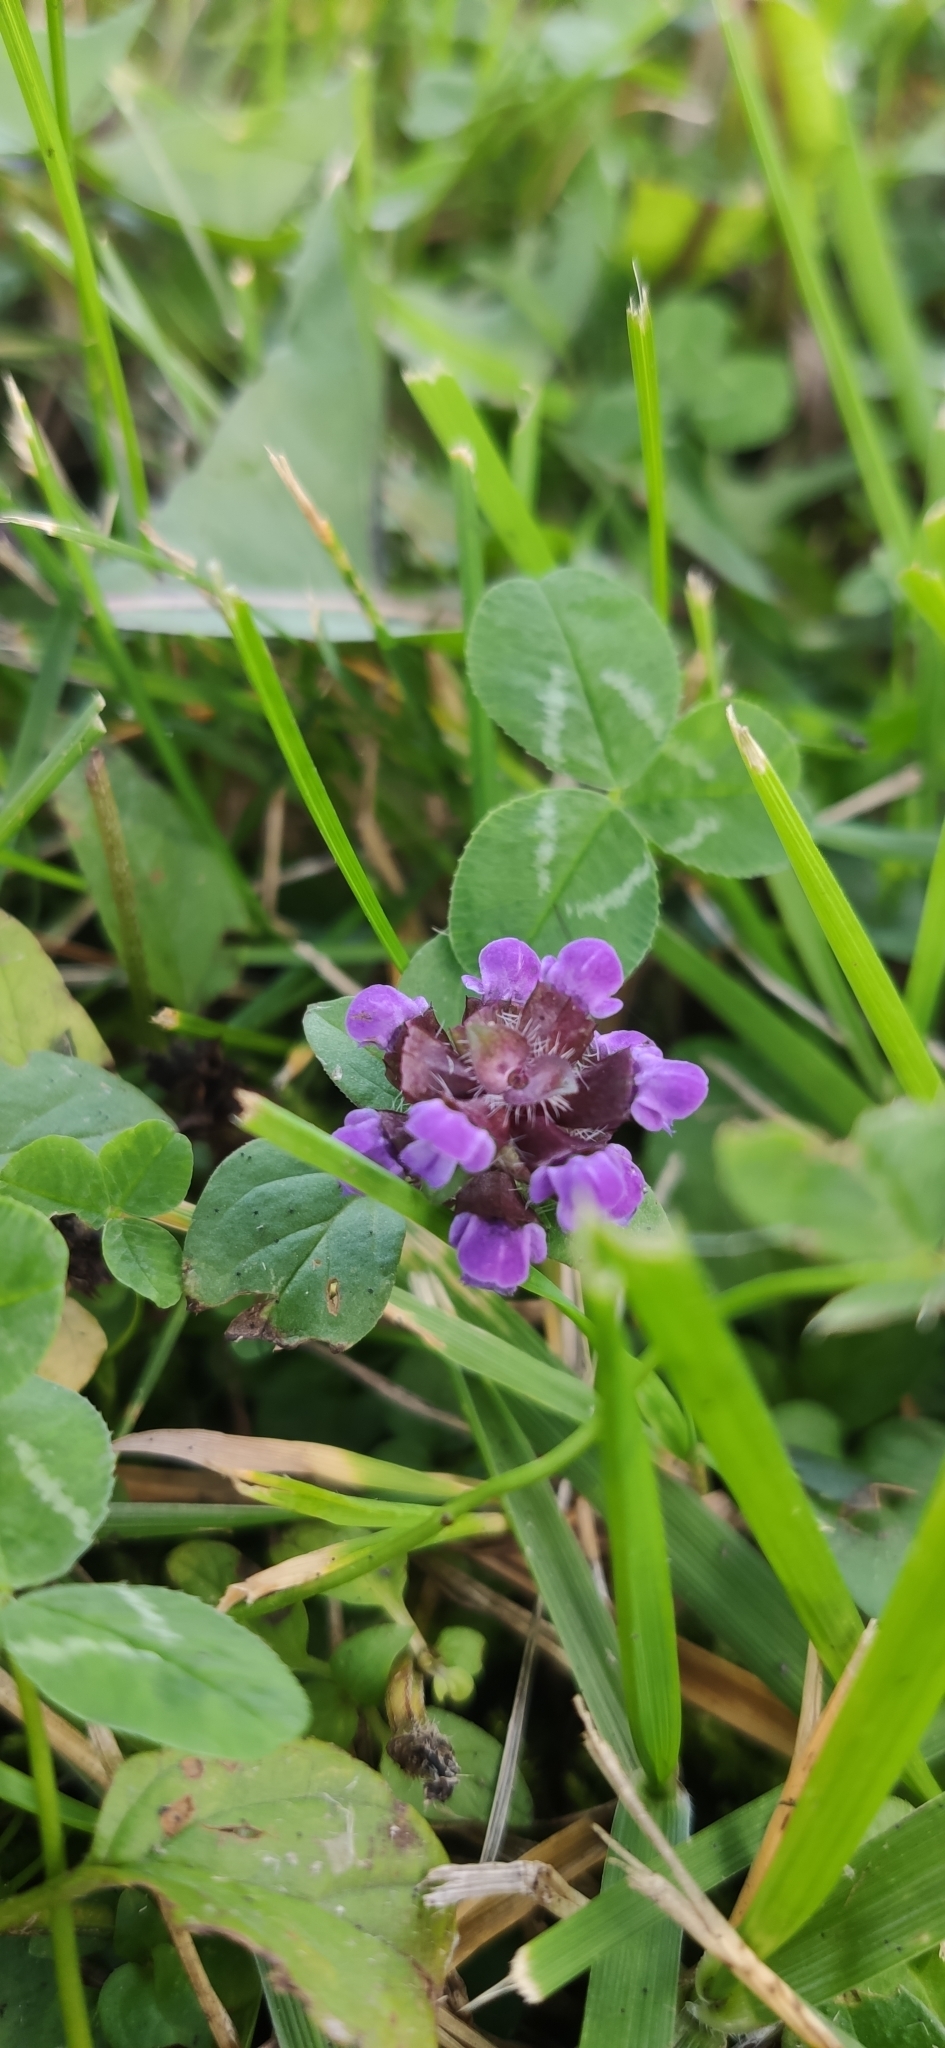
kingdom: Plantae
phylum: Tracheophyta
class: Magnoliopsida
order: Lamiales
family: Lamiaceae
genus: Prunella
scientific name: Prunella vulgaris
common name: Heal-all
